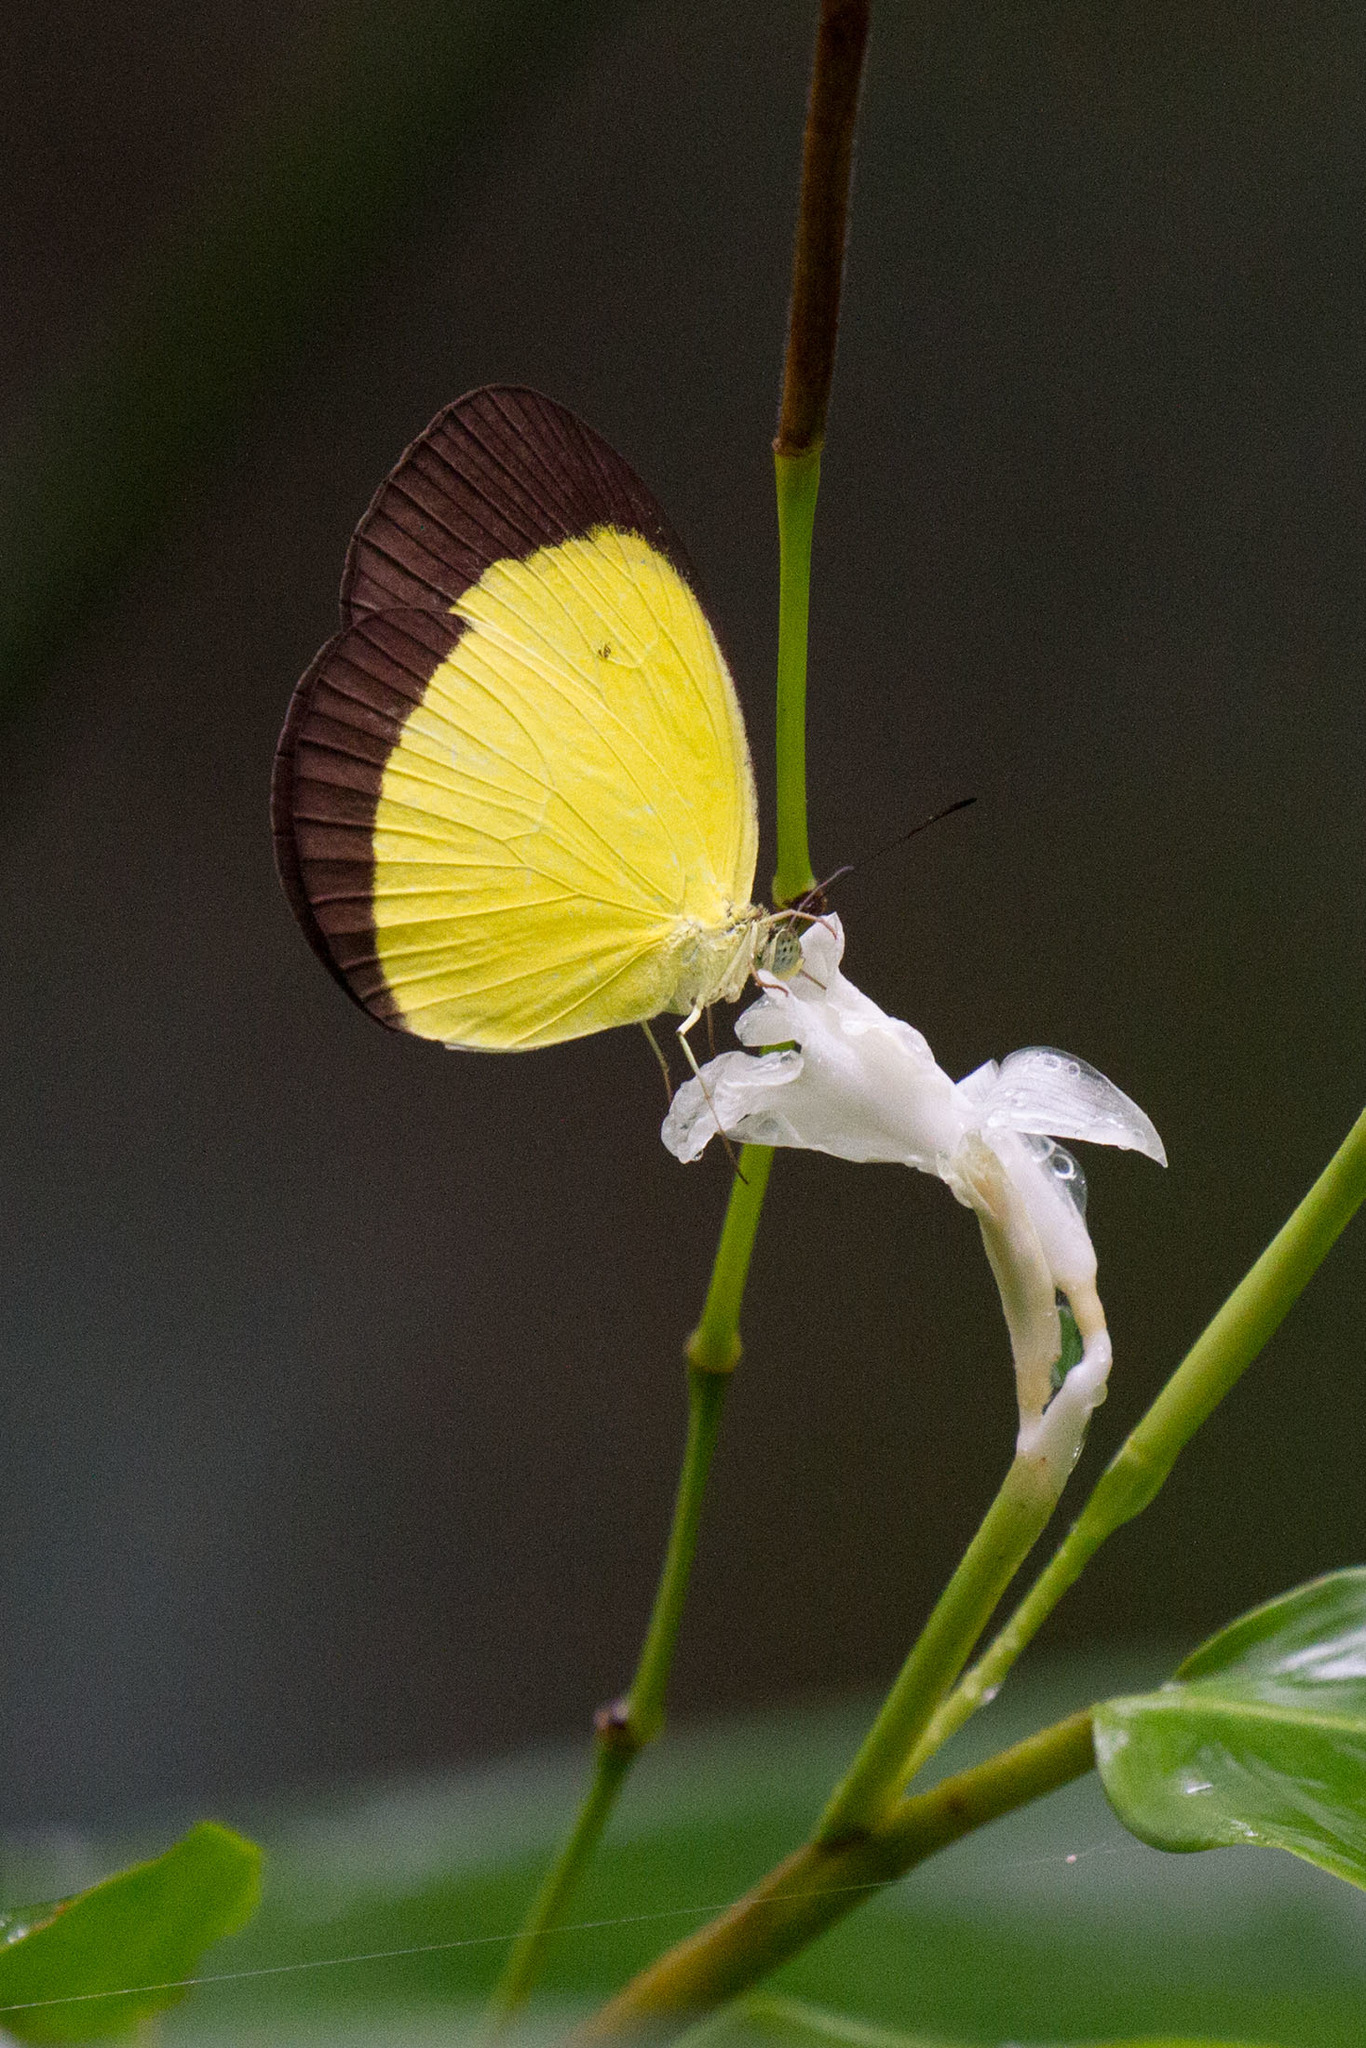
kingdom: Animalia
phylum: Arthropoda
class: Insecta
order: Lepidoptera
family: Pieridae
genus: Eurema
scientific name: Eurema puella
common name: Broad margined grass yellow
